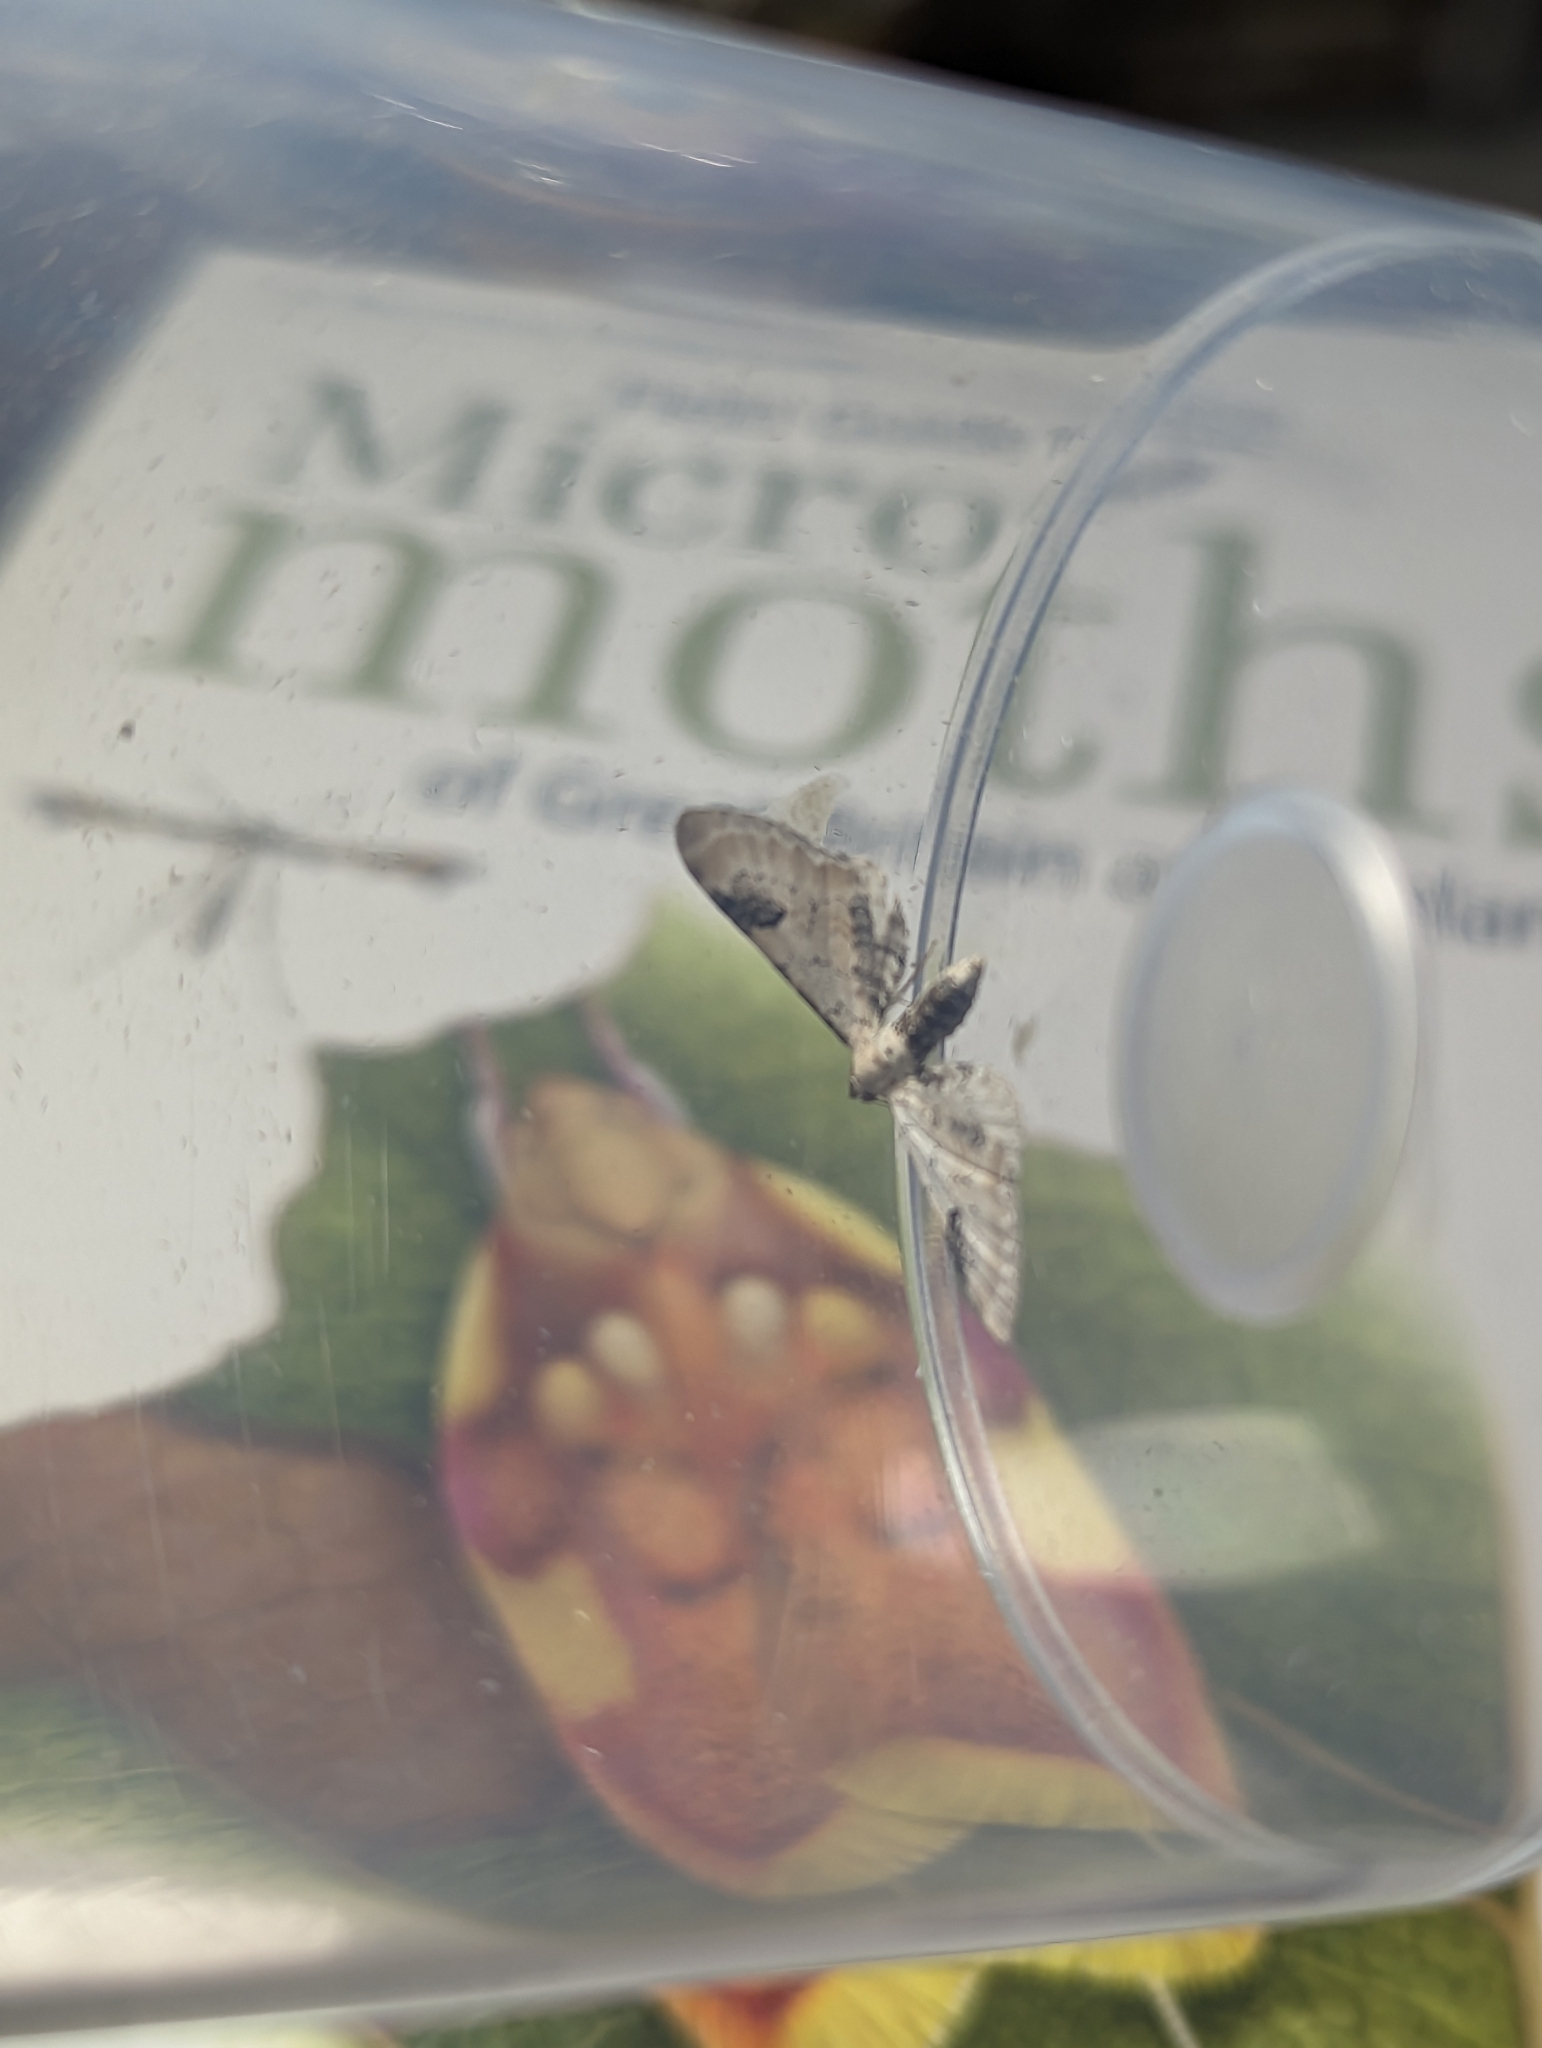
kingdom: Animalia
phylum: Arthropoda
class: Insecta
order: Lepidoptera
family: Geometridae
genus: Eupithecia
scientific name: Eupithecia centaureata
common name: Lime-speck pug
